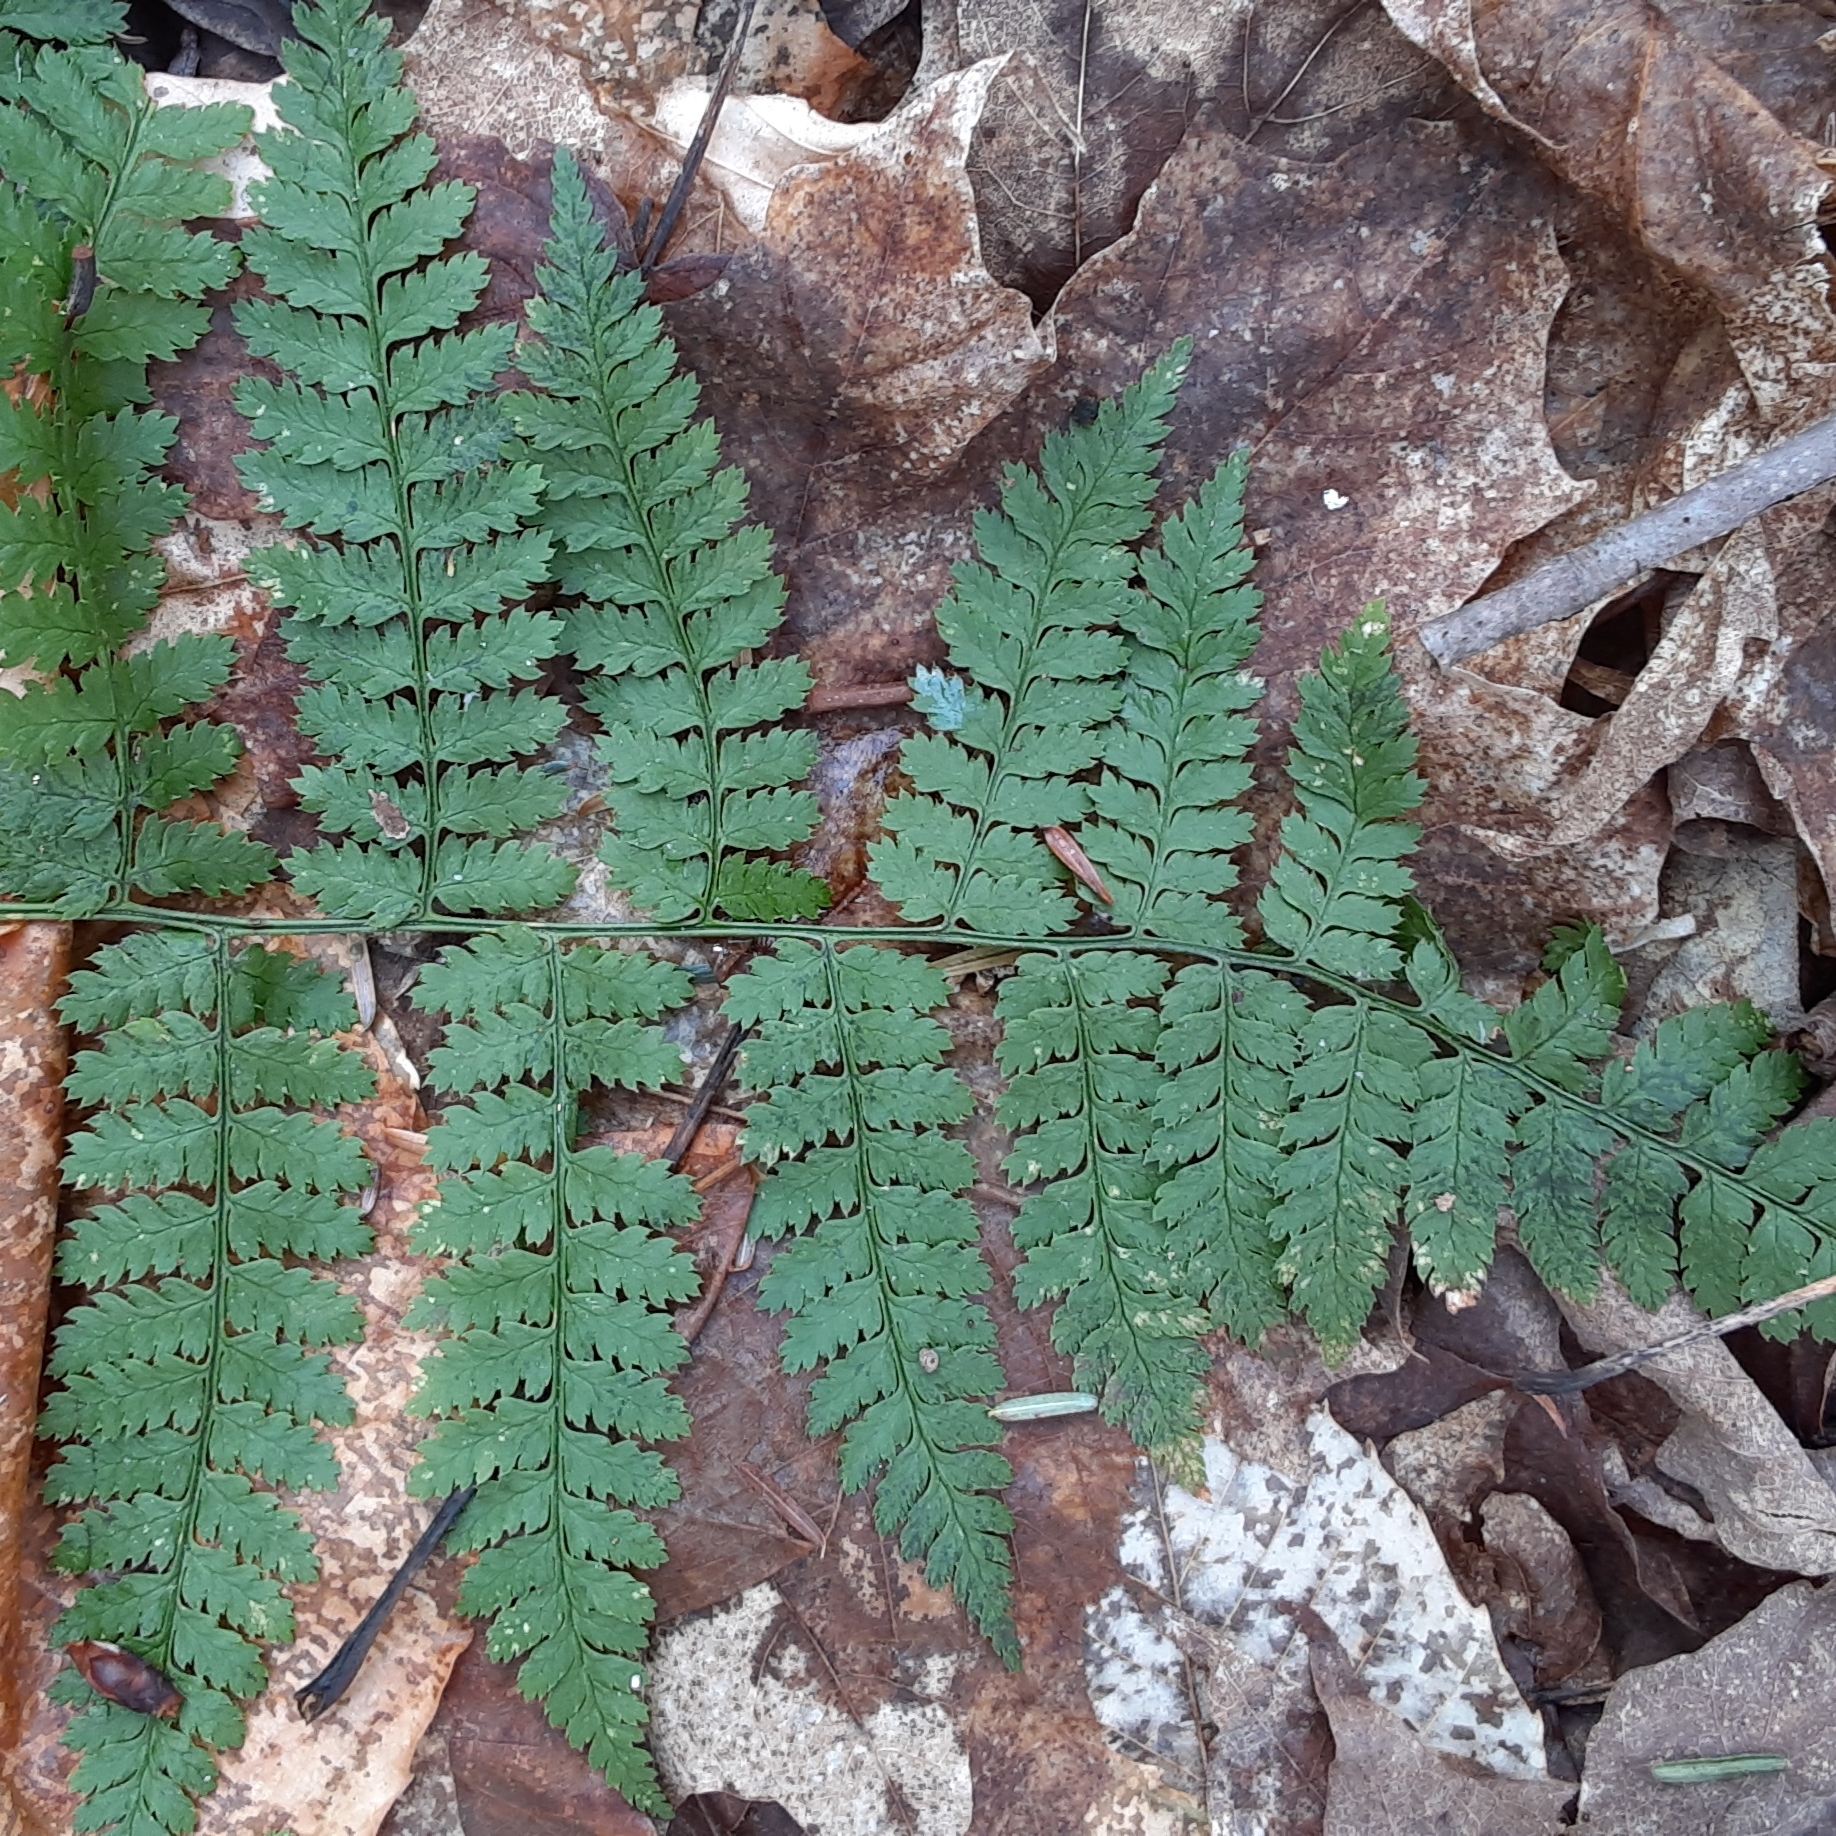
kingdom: Plantae
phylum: Tracheophyta
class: Polypodiopsida
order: Polypodiales
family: Dryopteridaceae
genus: Dryopteris
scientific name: Dryopteris intermedia
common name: Evergreen wood fern
